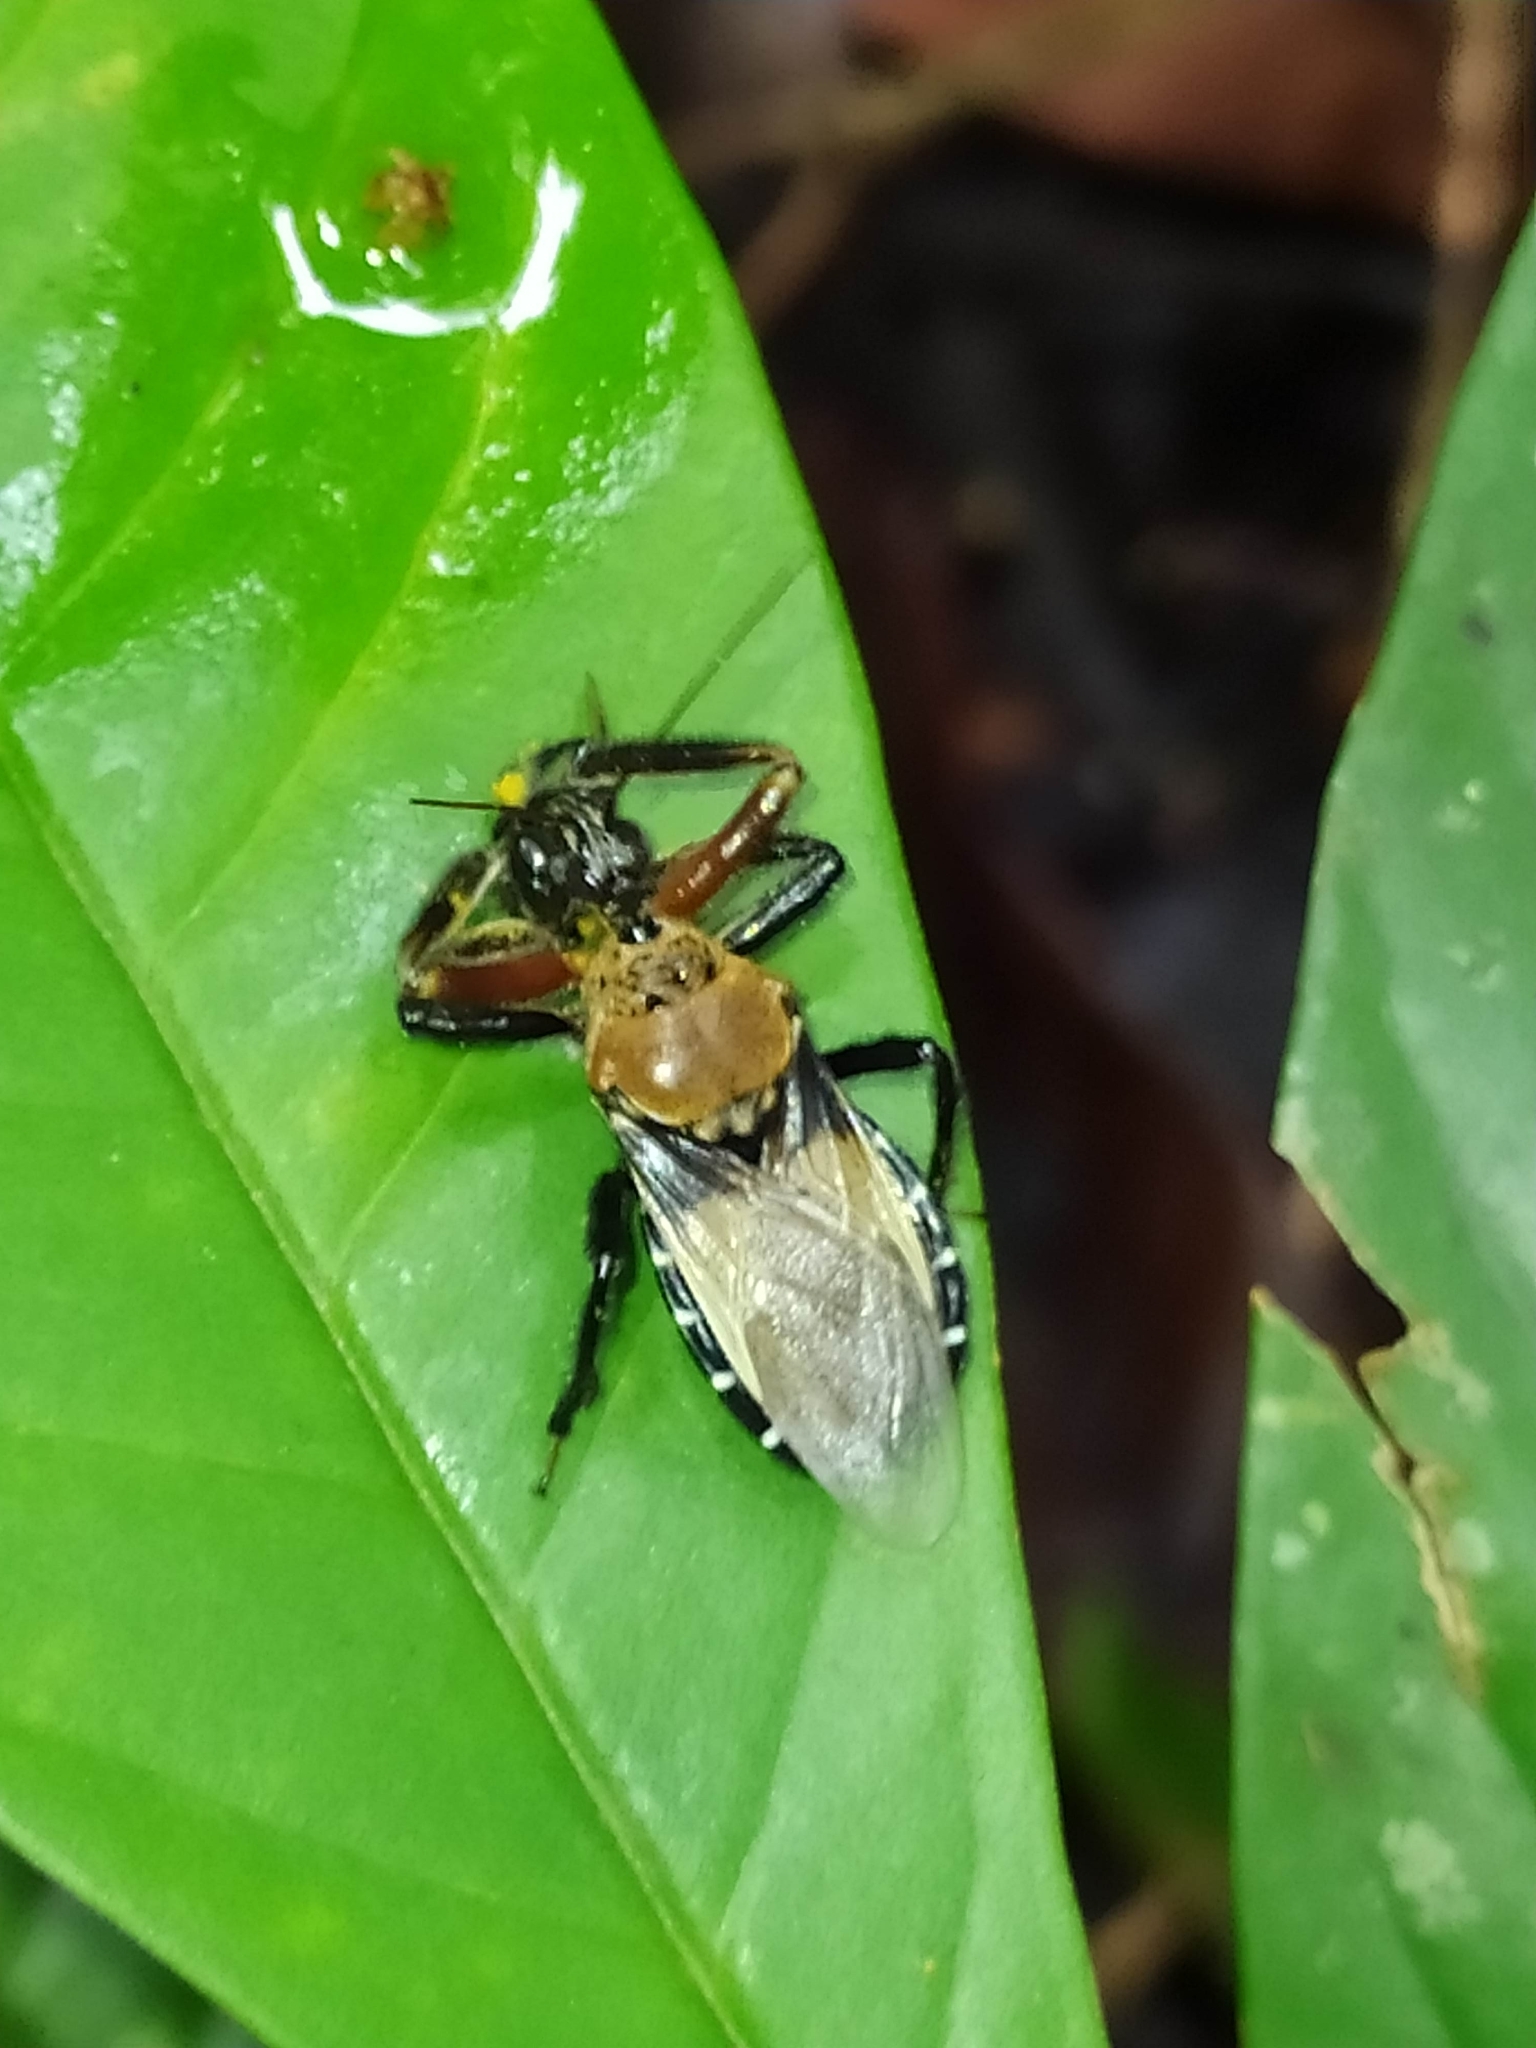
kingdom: Animalia
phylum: Arthropoda
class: Insecta
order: Hemiptera
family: Reduviidae
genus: Apiomerus
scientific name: Apiomerus pilipes
